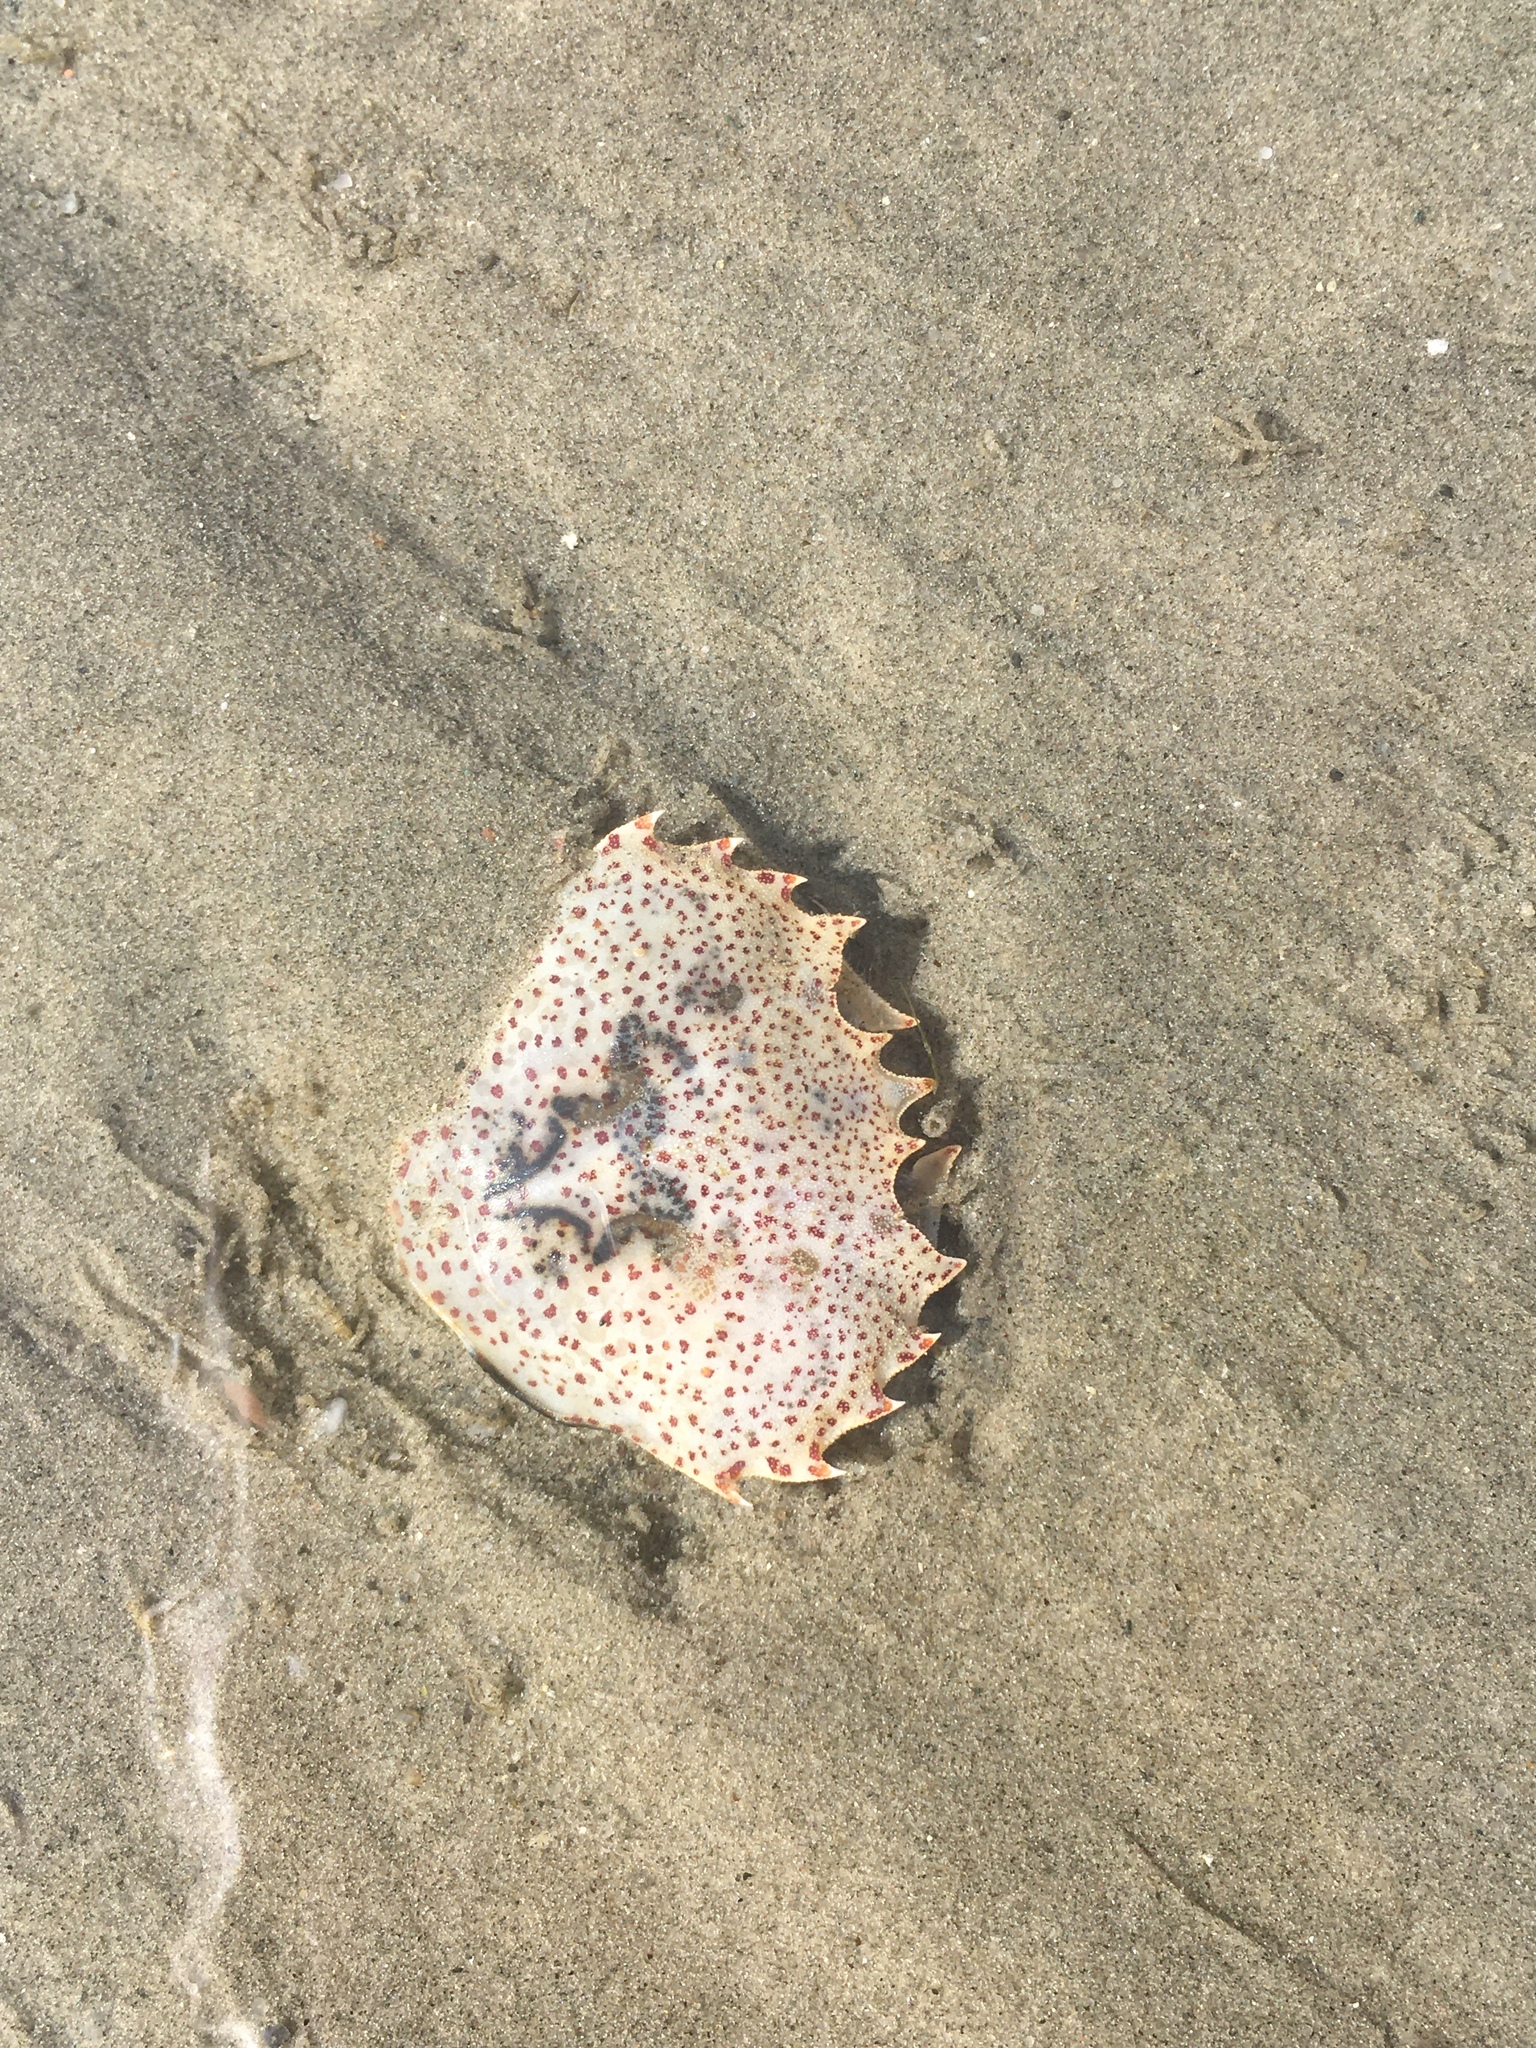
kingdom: Animalia
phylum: Arthropoda
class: Malacostraca
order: Decapoda
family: Ovalipidae
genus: Ovalipes
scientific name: Ovalipes ocellatus
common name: Lady crab
